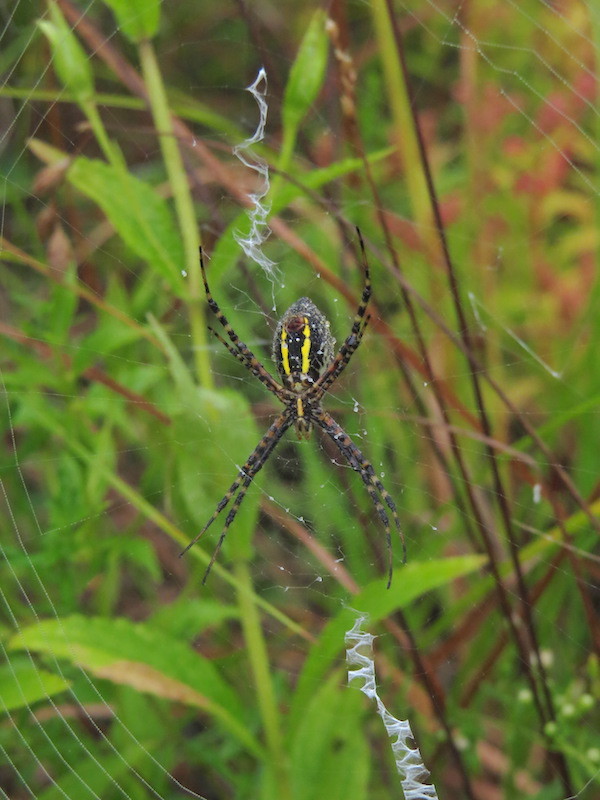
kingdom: Animalia
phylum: Arthropoda
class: Arachnida
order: Araneae
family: Araneidae
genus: Argiope
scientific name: Argiope trifasciata
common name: Banded garden spider
